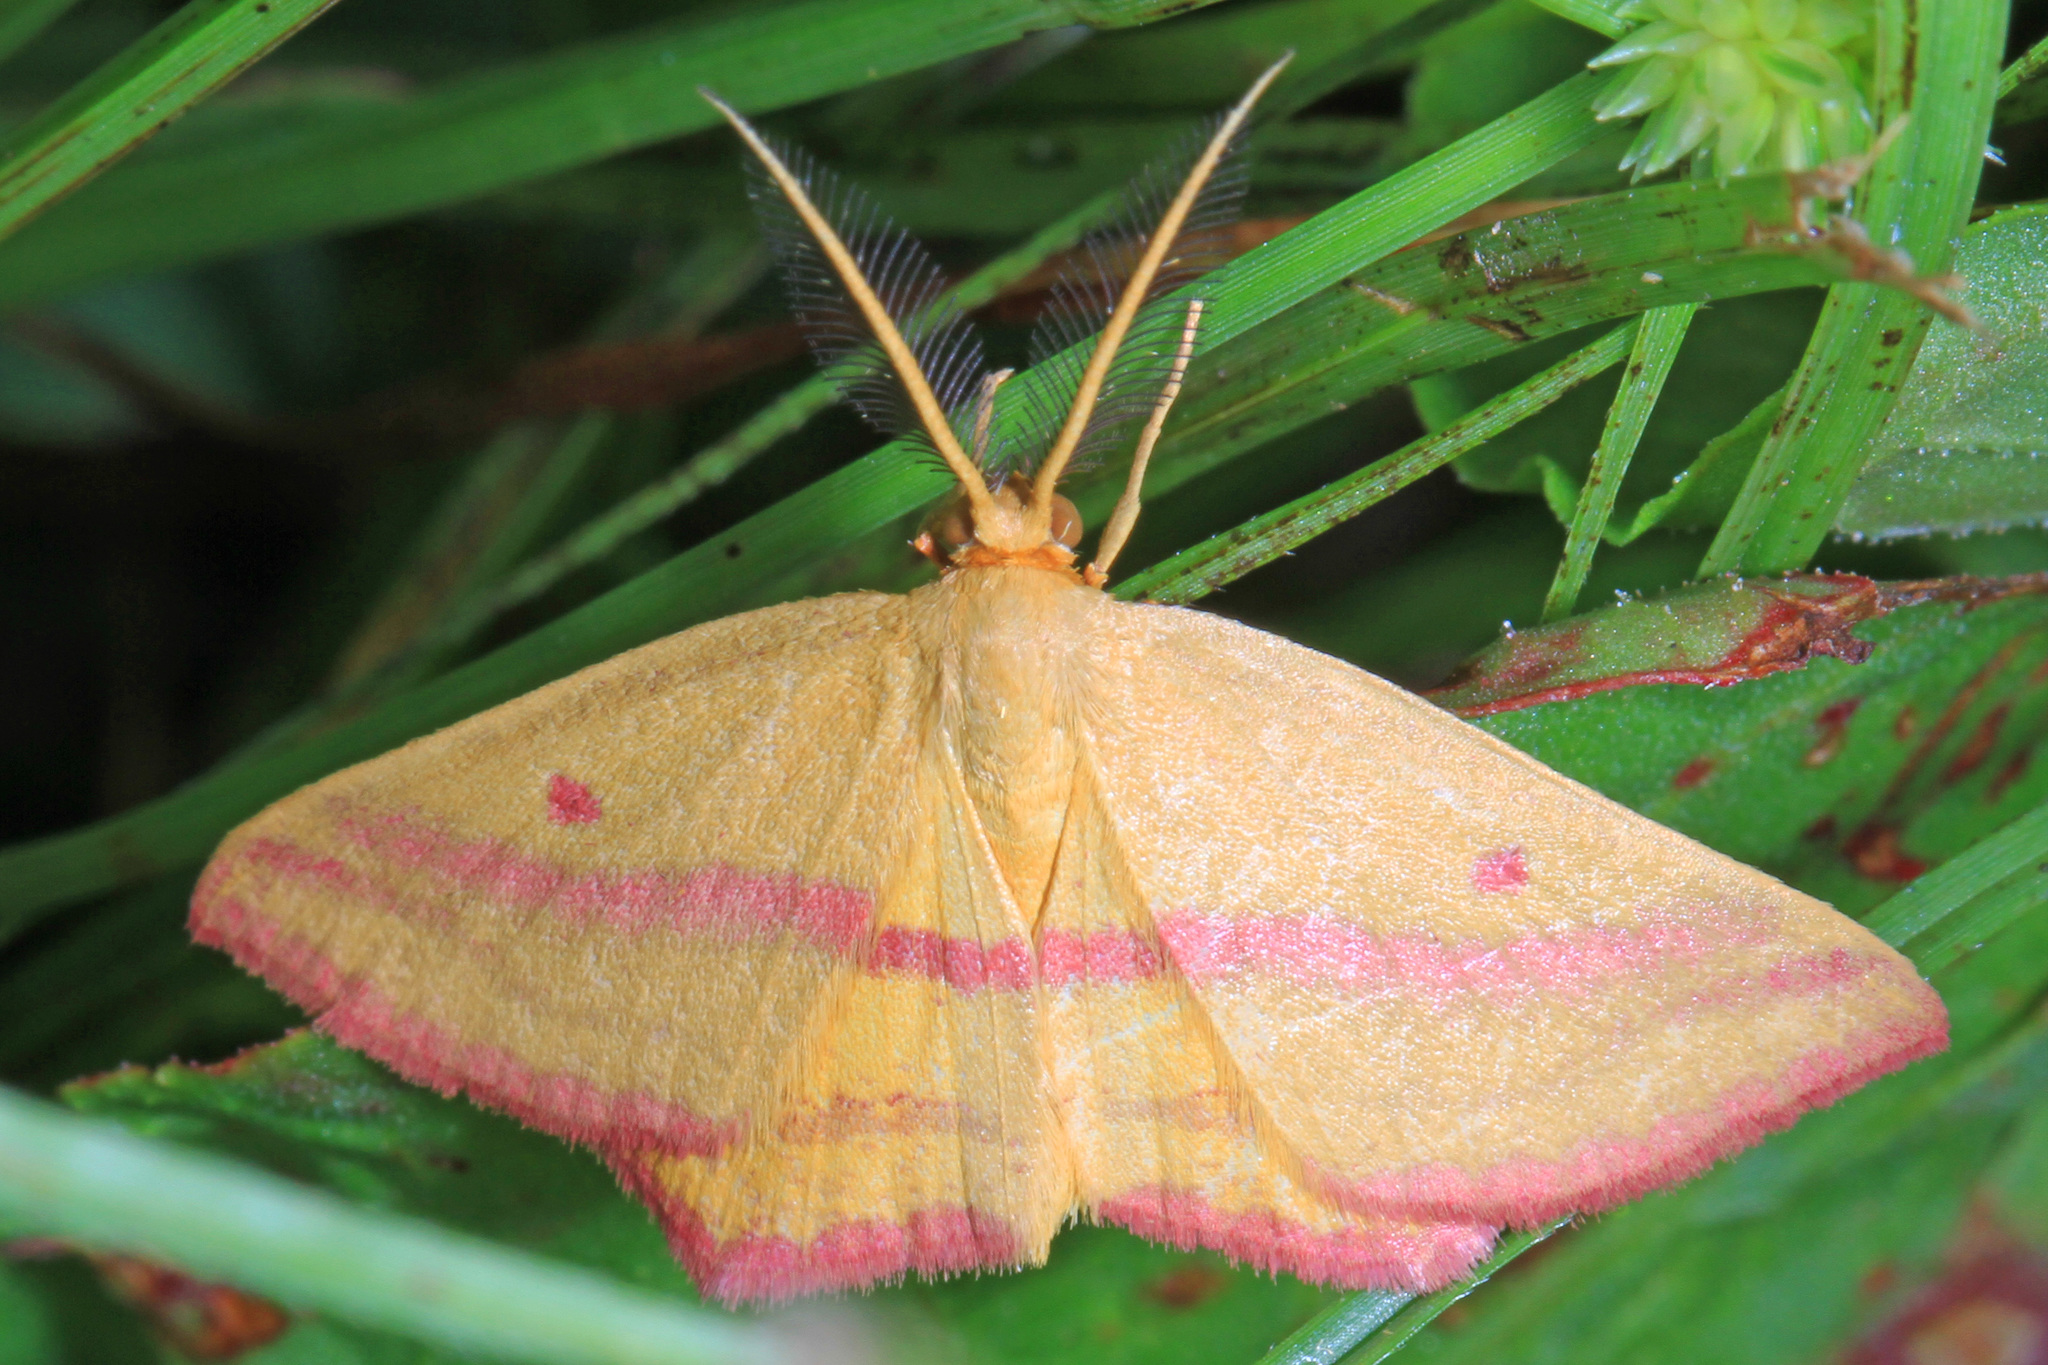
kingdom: Animalia
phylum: Arthropoda
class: Insecta
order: Lepidoptera
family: Geometridae
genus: Haematopis
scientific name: Haematopis grataria
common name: Chickweed geometer
